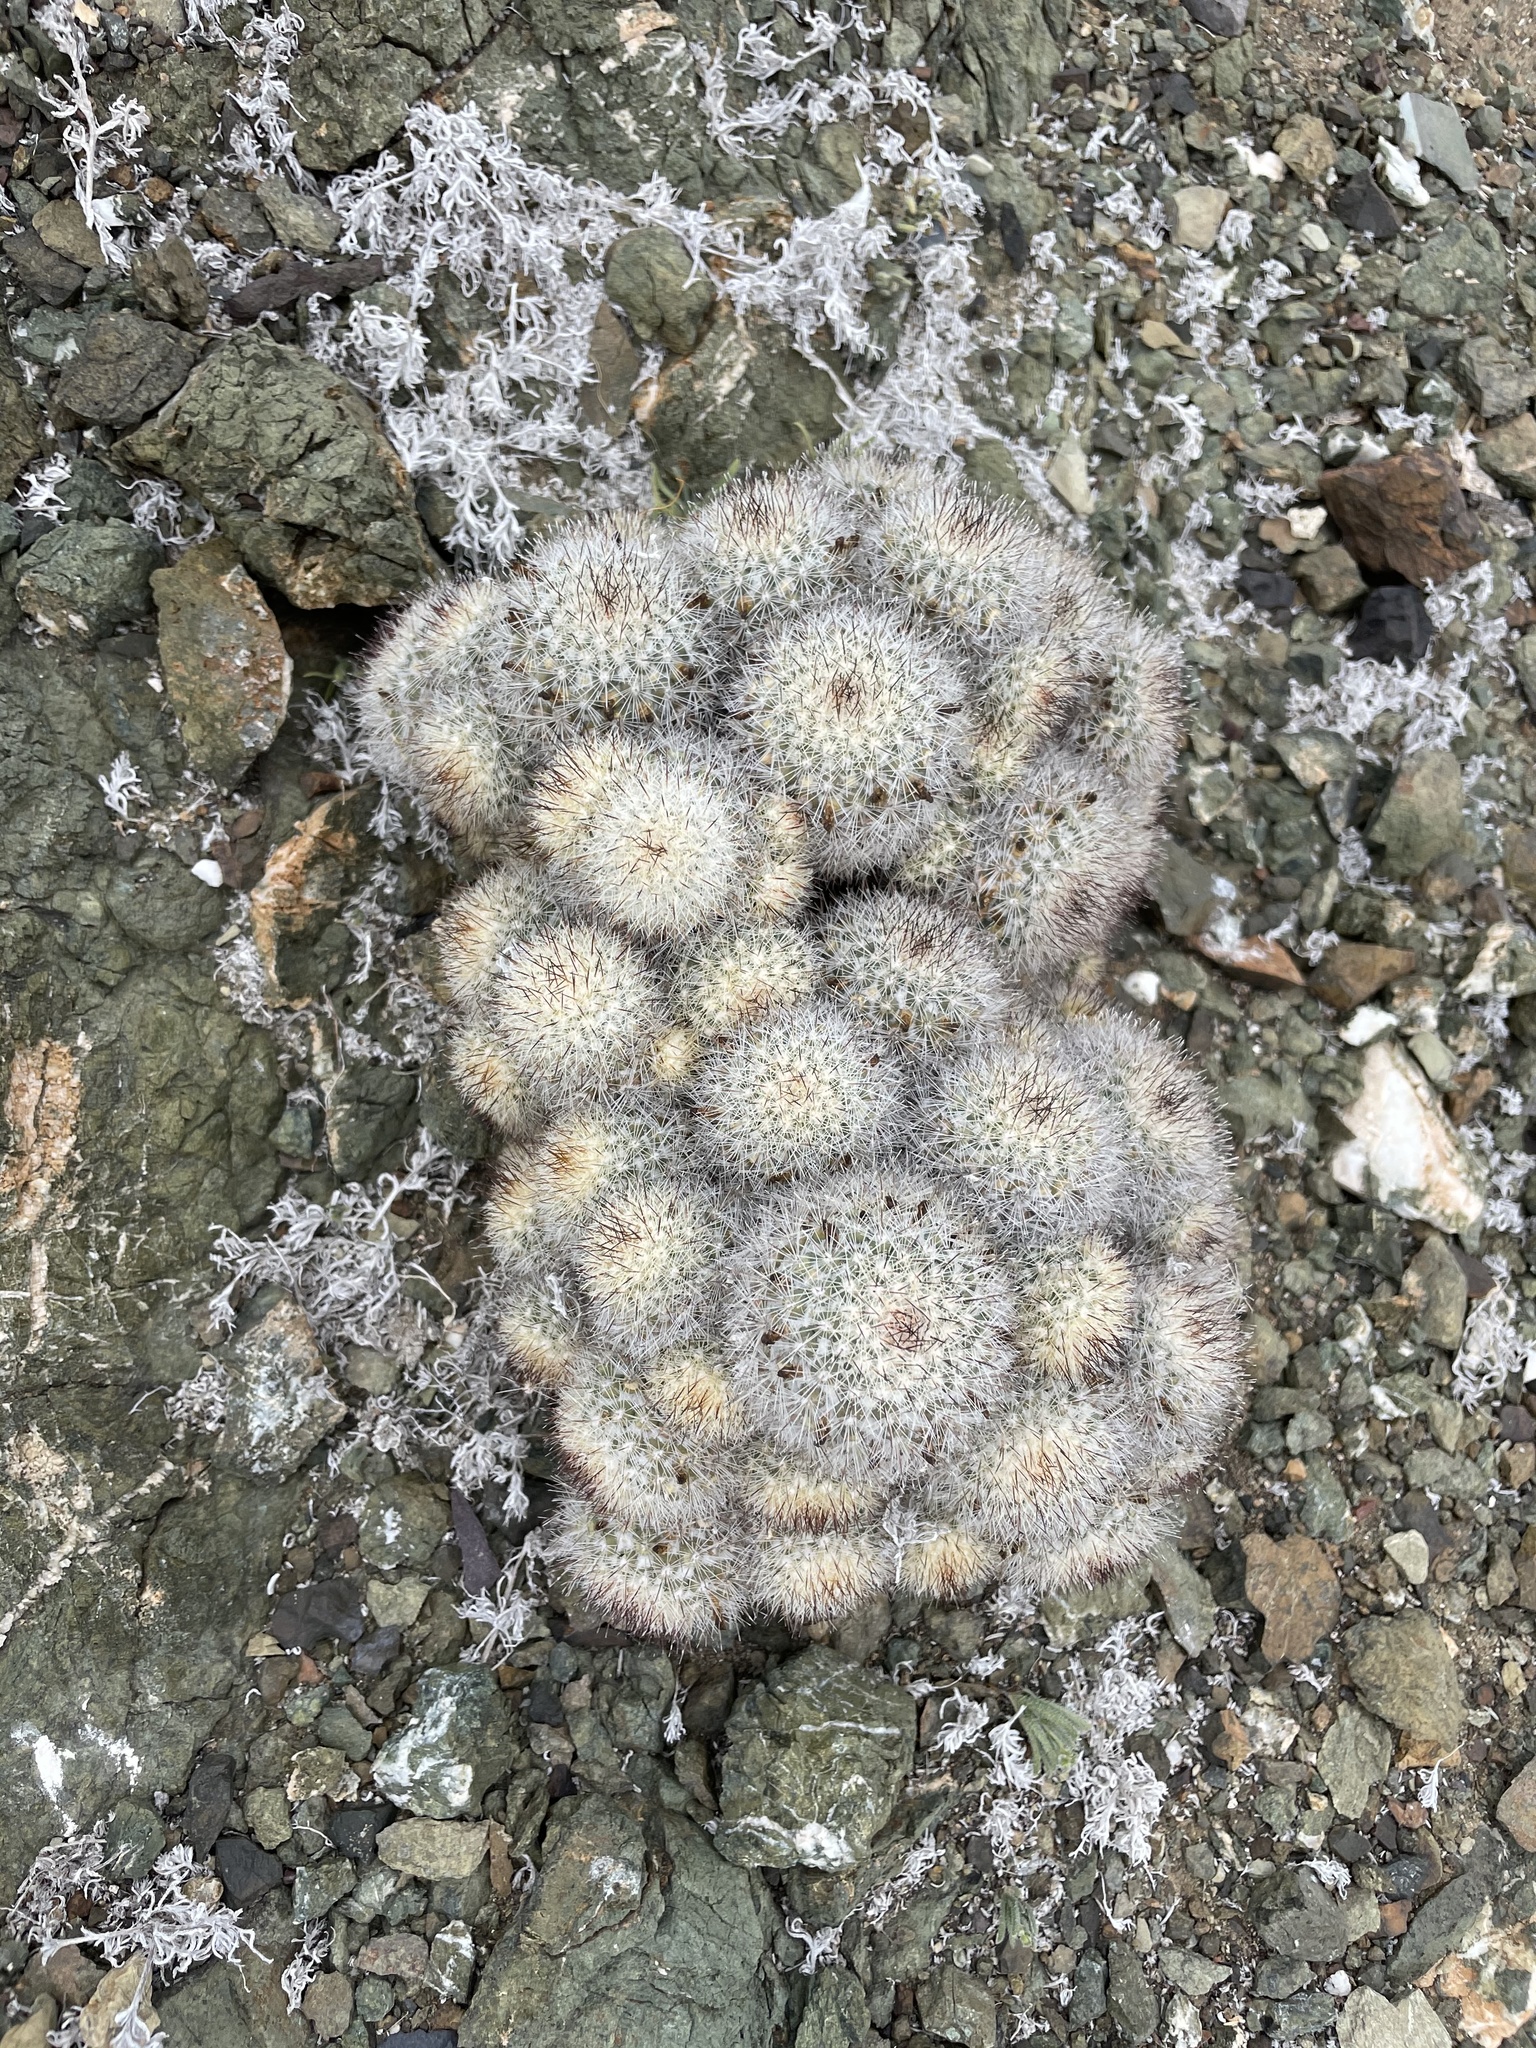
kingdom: Plantae
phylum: Tracheophyta
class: Magnoliopsida
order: Caryophyllales
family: Cactaceae
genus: Cochemiea
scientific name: Cochemiea palmeri
